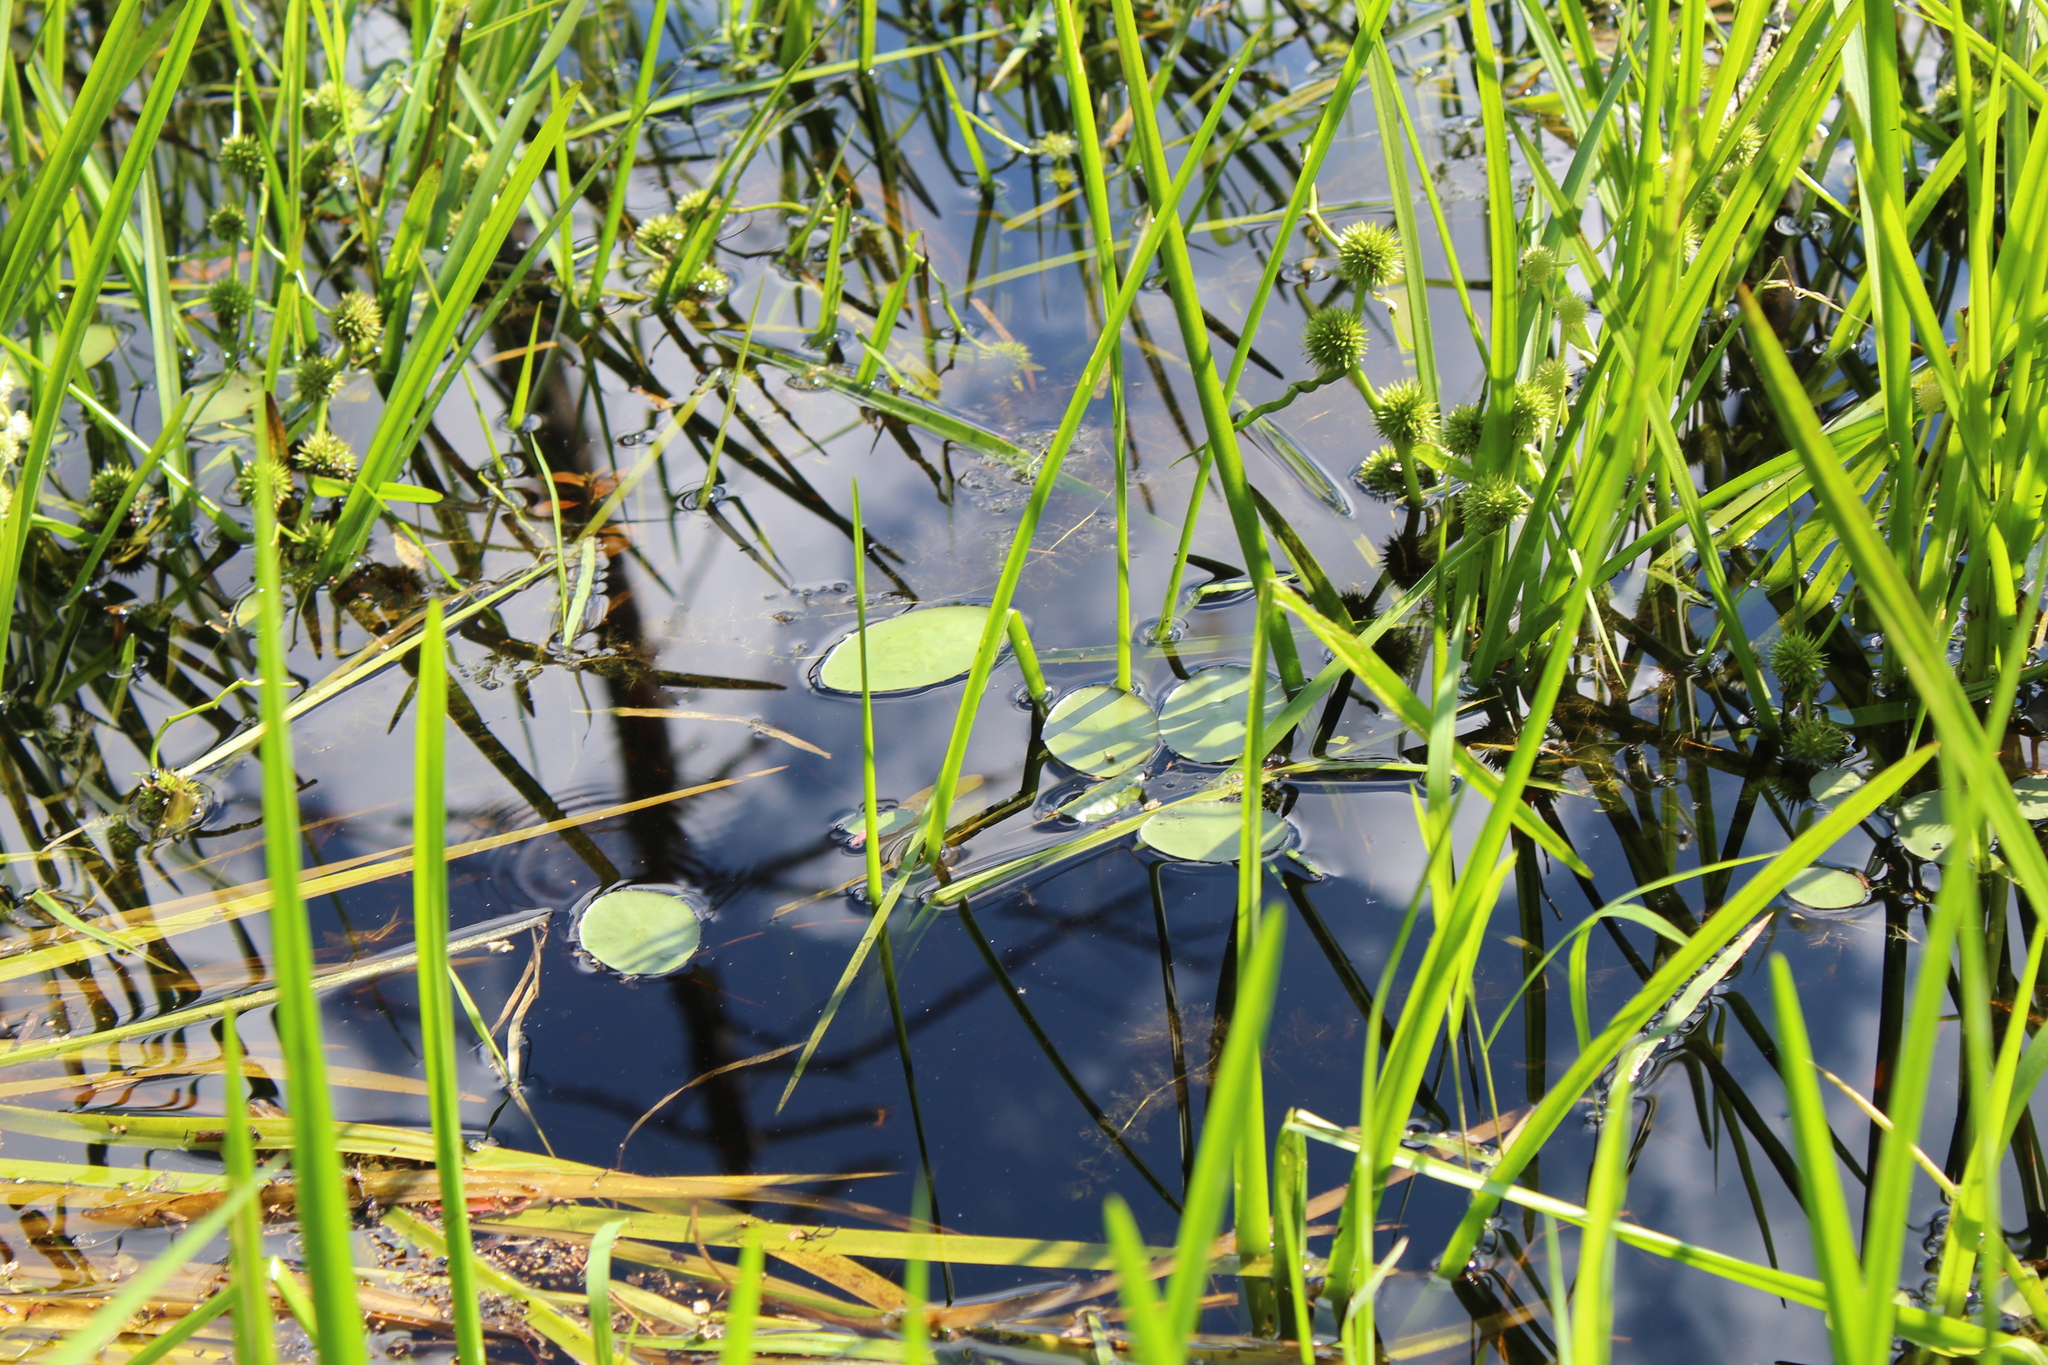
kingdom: Plantae
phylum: Tracheophyta
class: Magnoliopsida
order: Nymphaeales
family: Cabombaceae
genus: Brasenia
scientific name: Brasenia schreberi
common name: Water-shield
